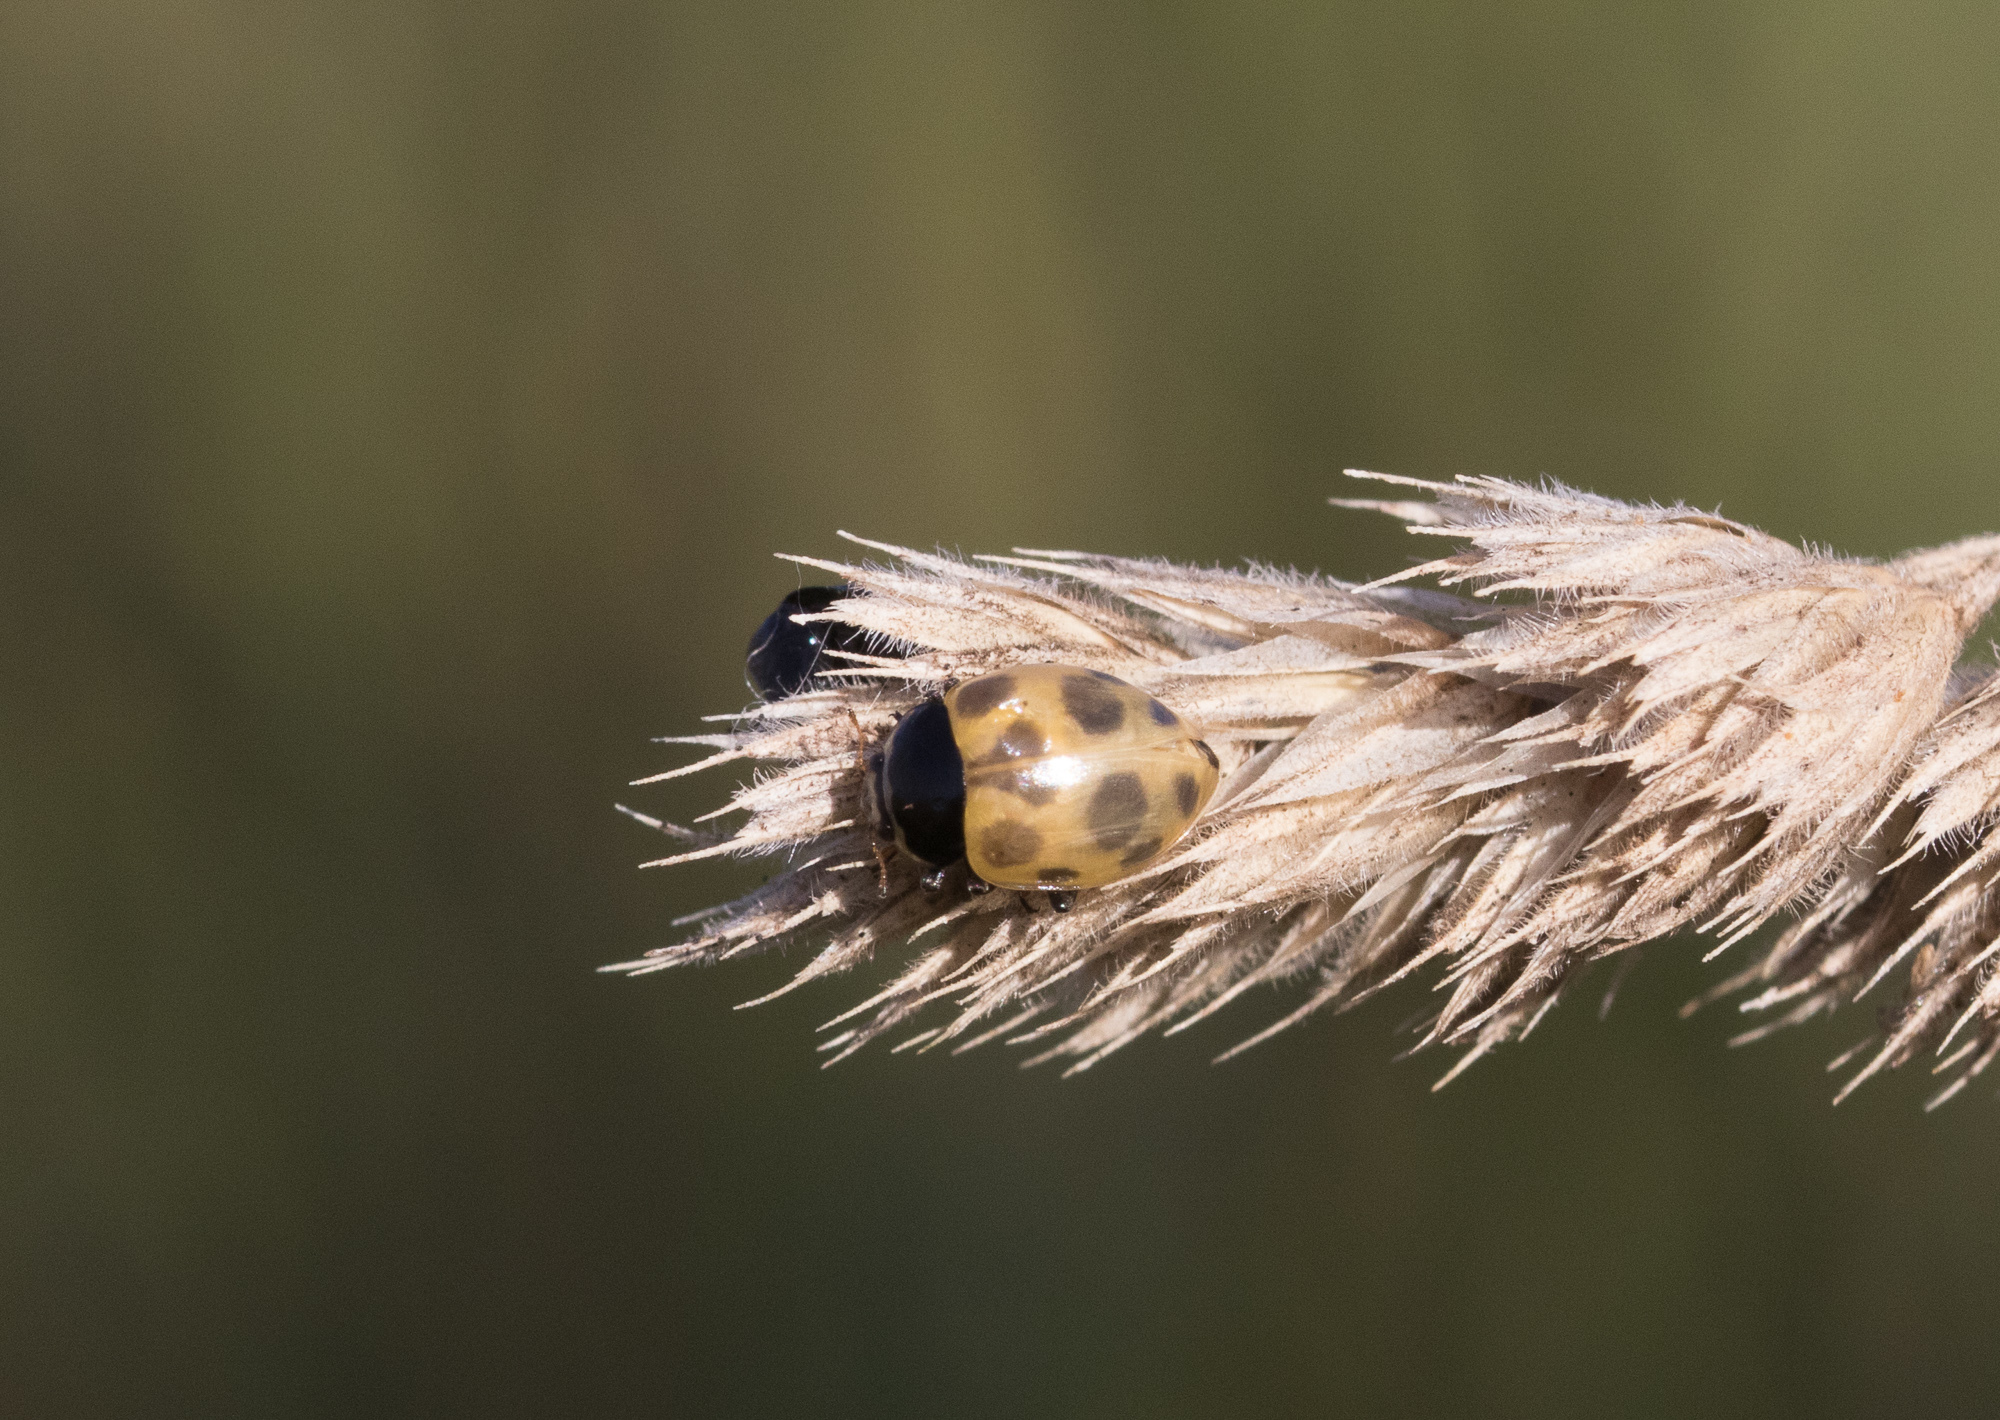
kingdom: Animalia
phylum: Arthropoda
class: Insecta
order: Coleoptera
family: Coccinellidae
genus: Ceratomegilla
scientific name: Ceratomegilla notata
